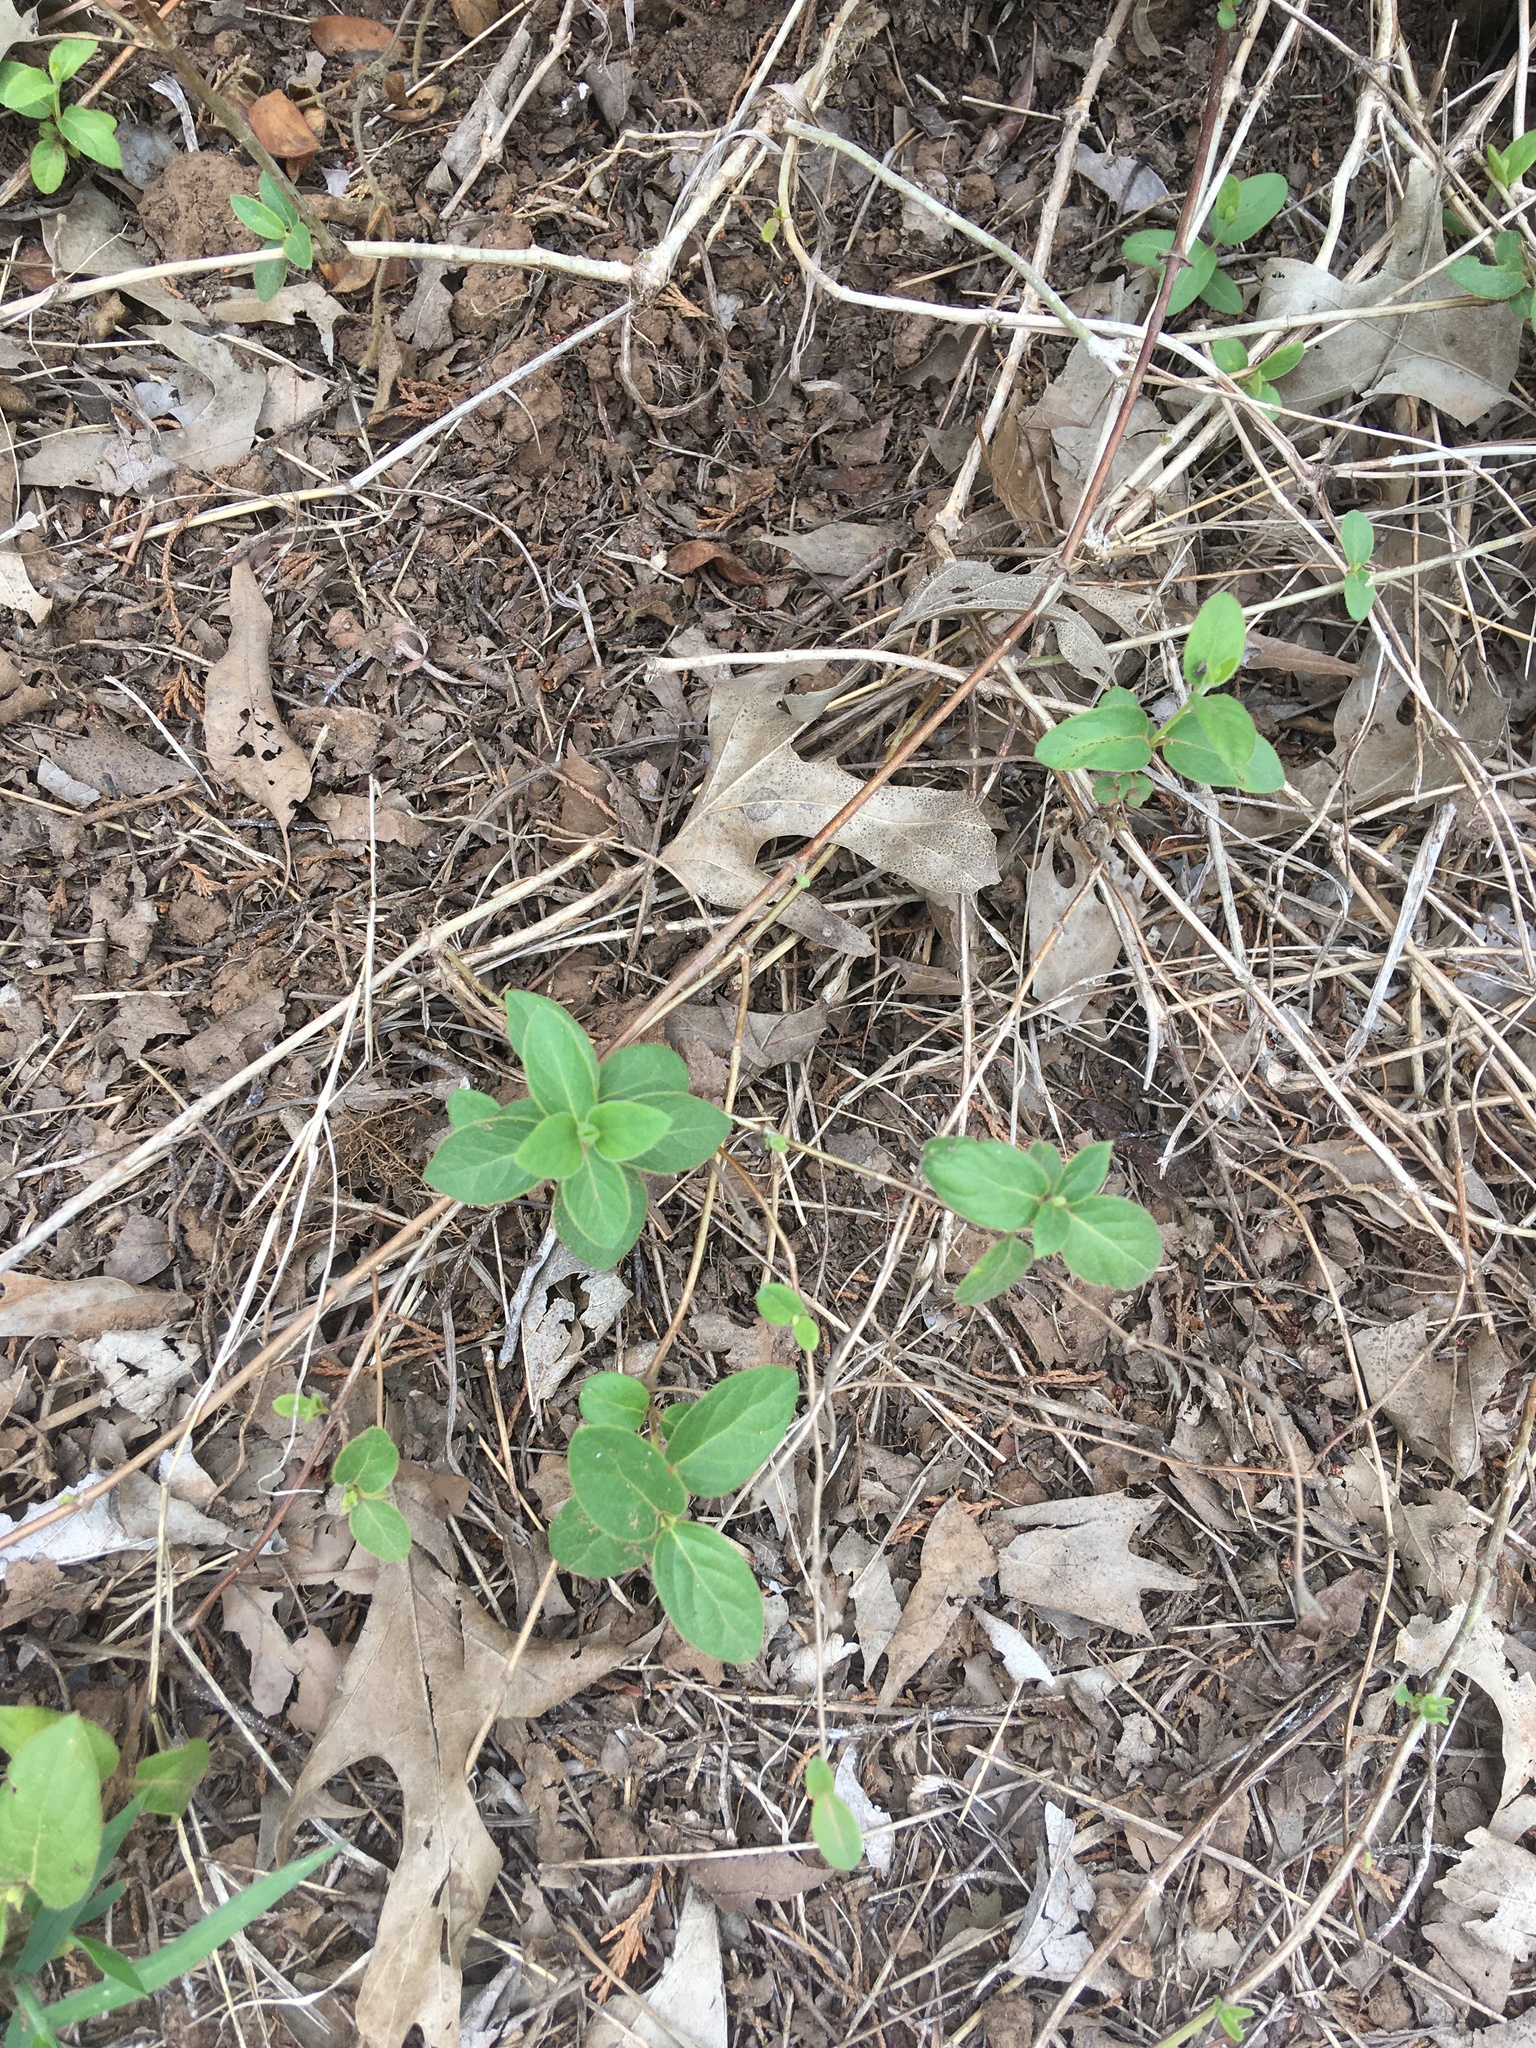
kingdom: Plantae
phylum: Tracheophyta
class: Magnoliopsida
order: Dipsacales
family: Caprifoliaceae
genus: Lonicera
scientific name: Lonicera japonica
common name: Japanese honeysuckle
